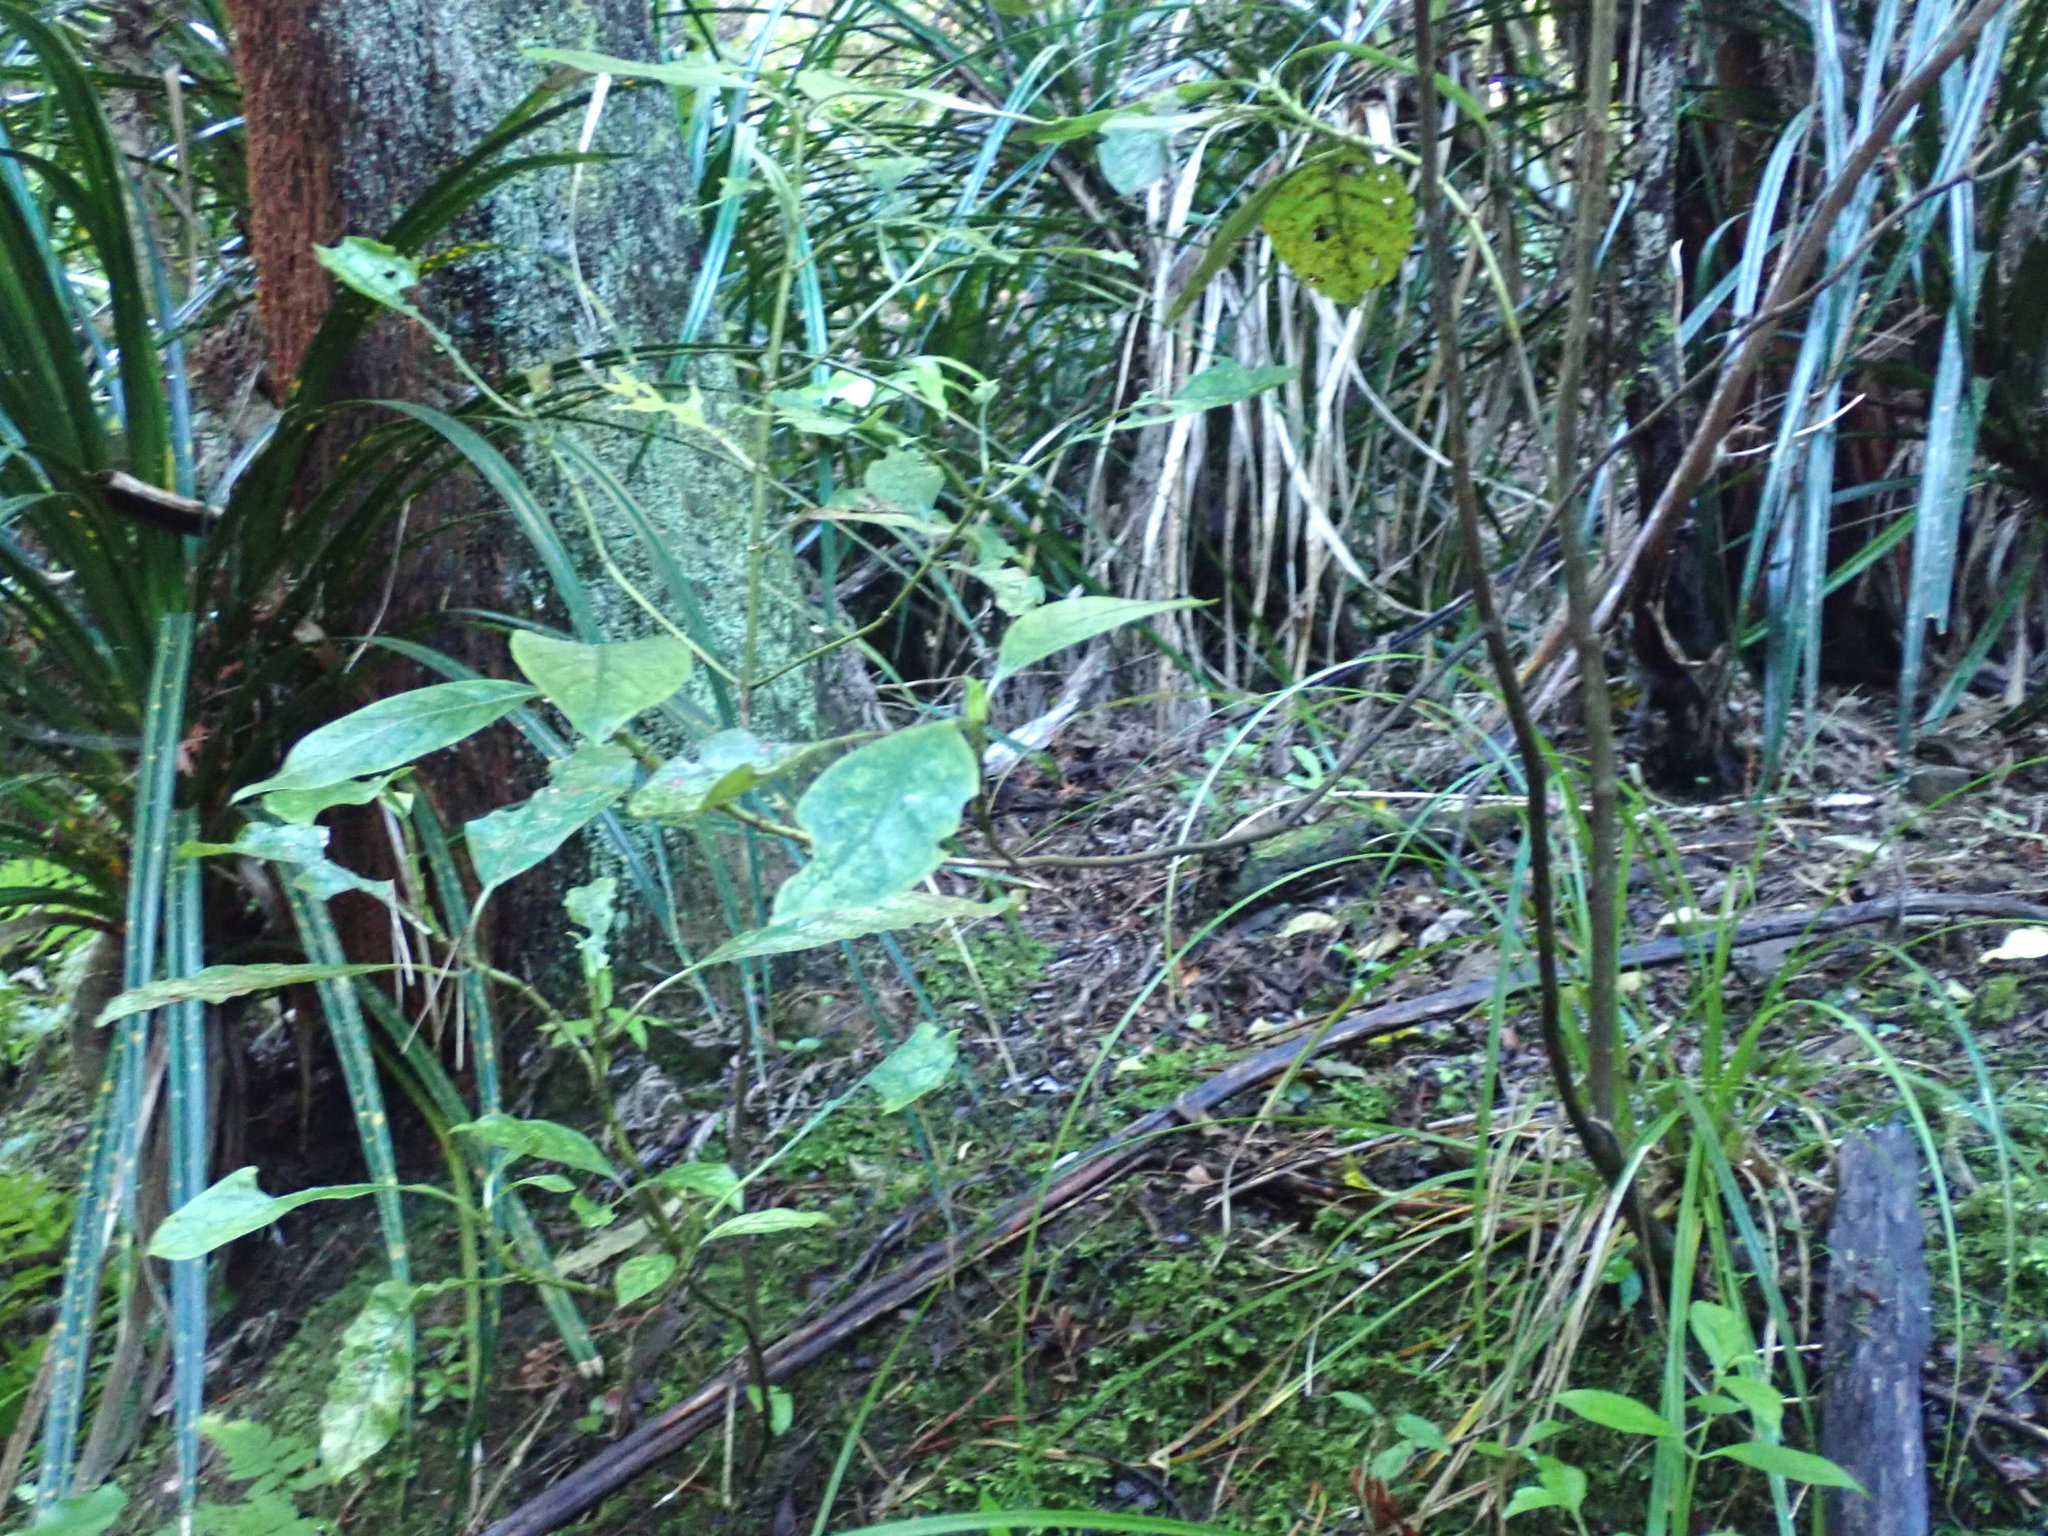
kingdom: Plantae
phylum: Tracheophyta
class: Magnoliopsida
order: Gentianales
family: Rubiaceae
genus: Coprosma
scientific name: Coprosma autumnalis
